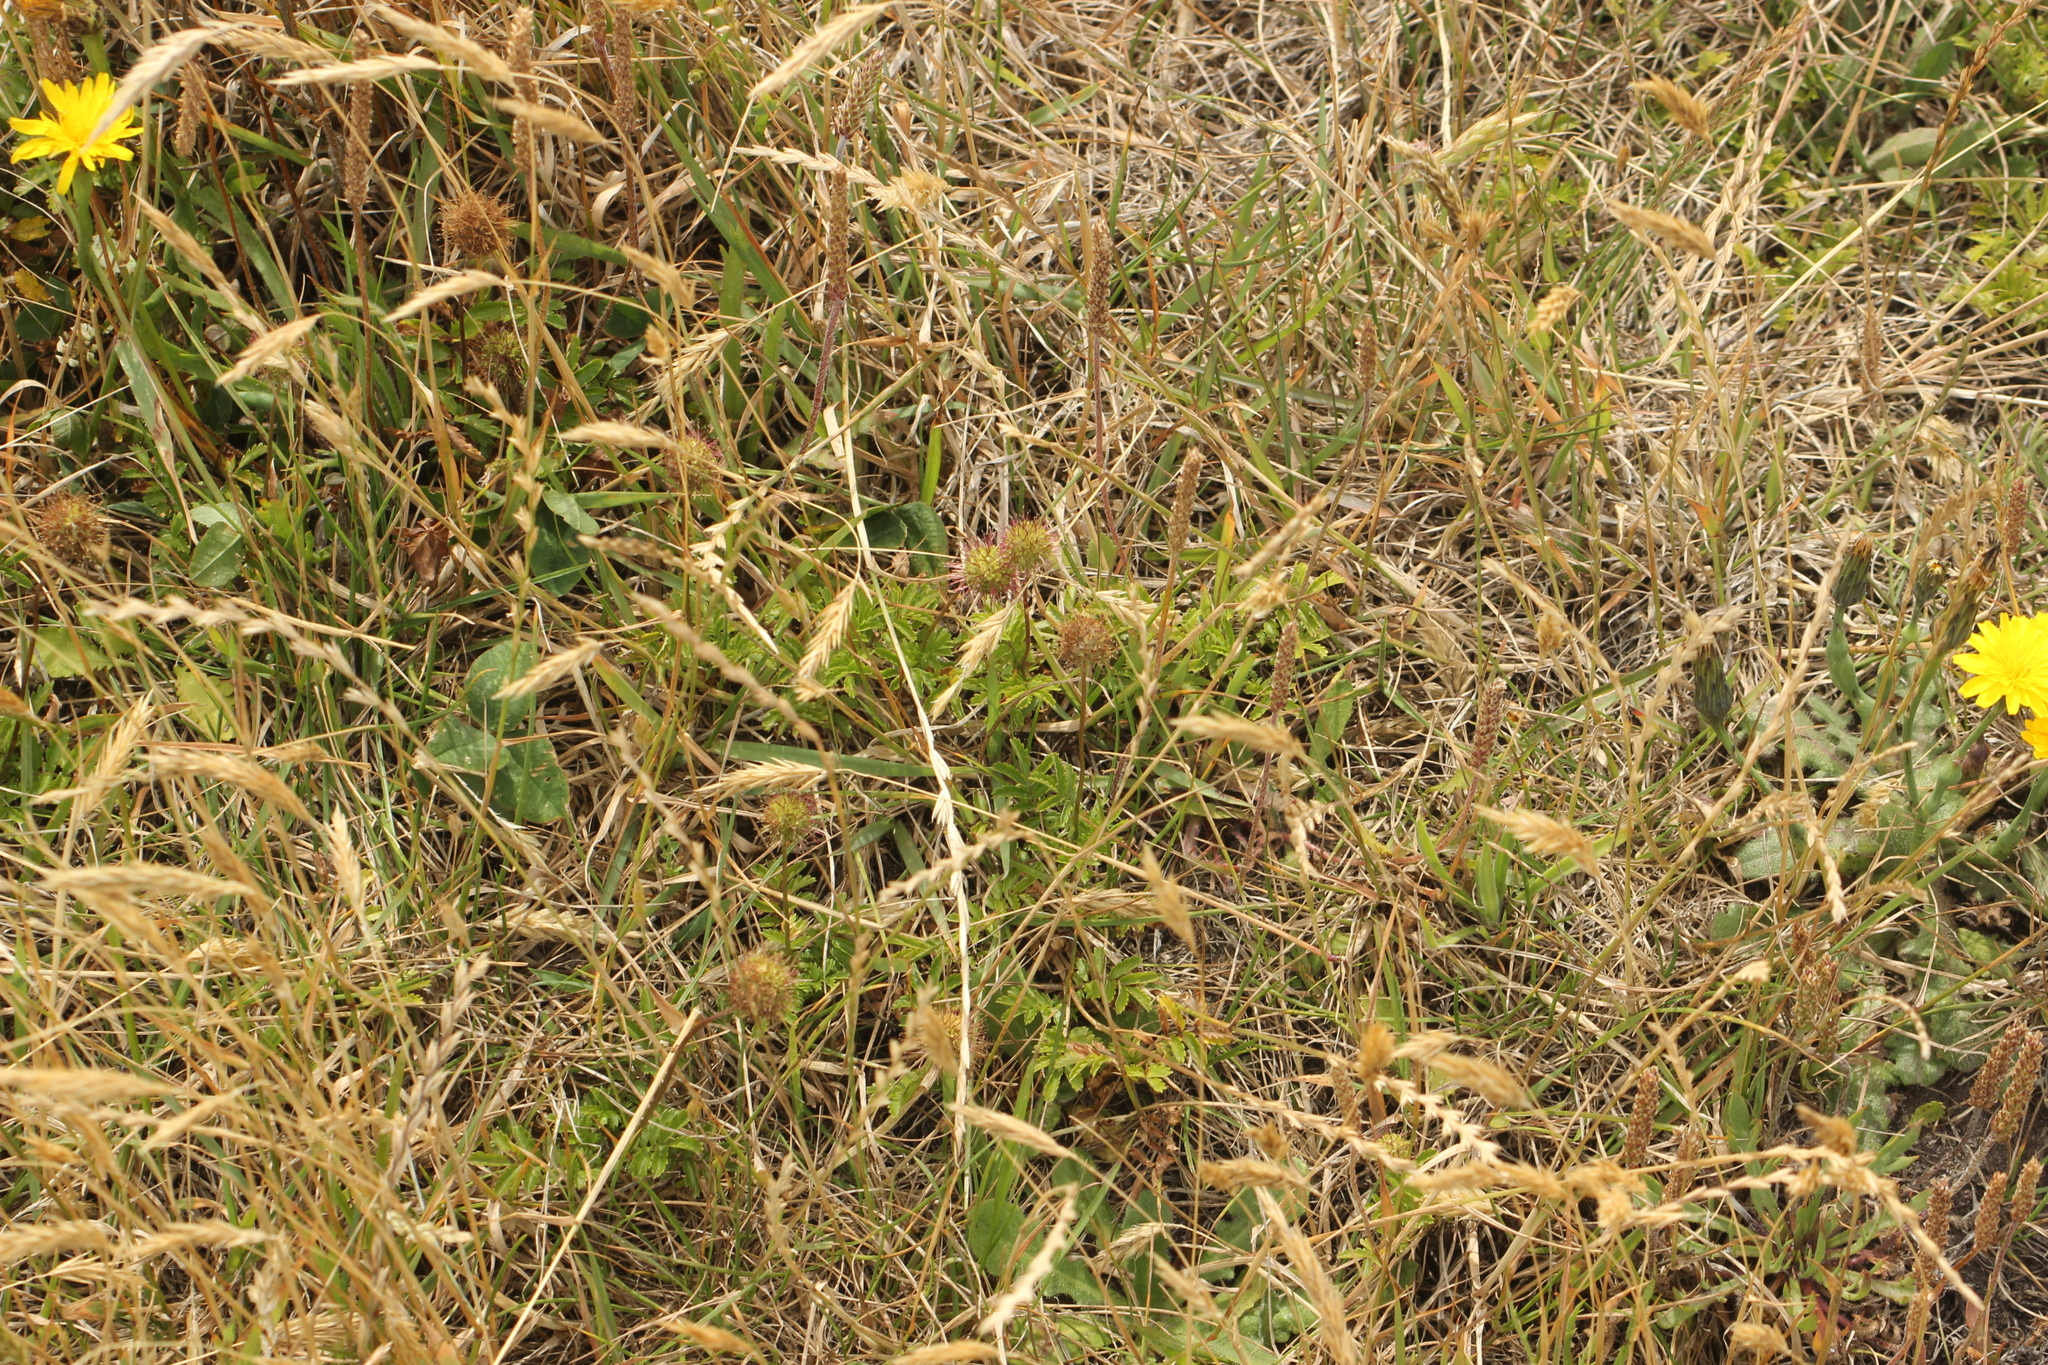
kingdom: Plantae
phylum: Tracheophyta
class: Magnoliopsida
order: Rosales
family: Rosaceae
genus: Acaena
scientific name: Acaena novae-zelandiae
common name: Pirri-pirri-bur
